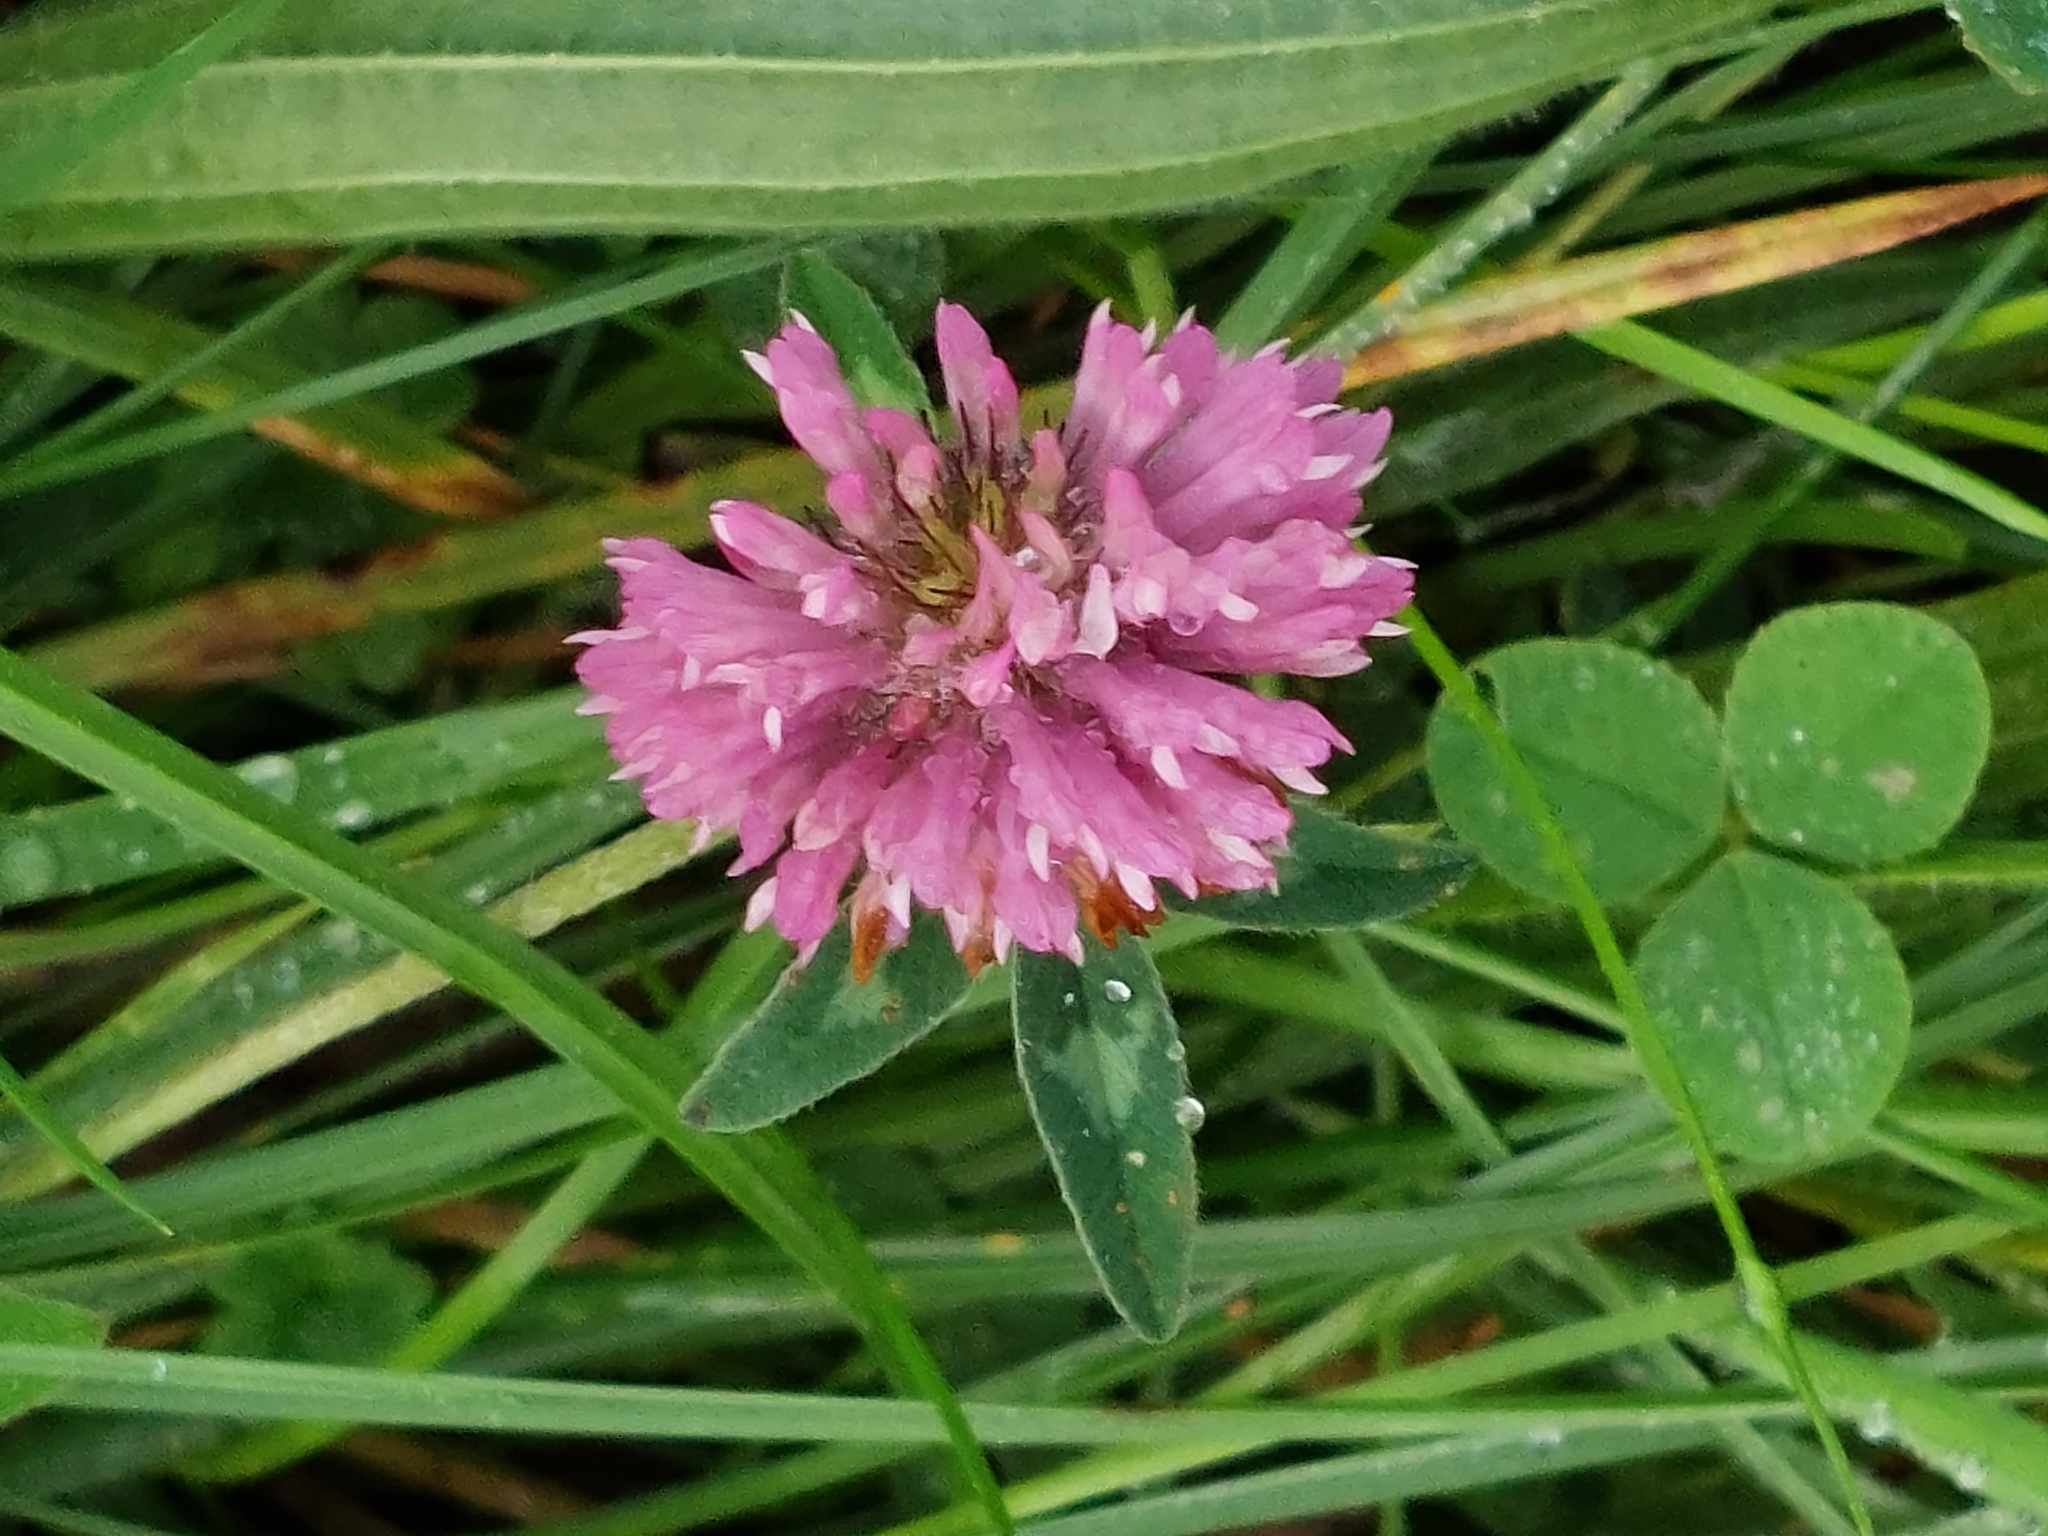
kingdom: Plantae
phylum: Tracheophyta
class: Magnoliopsida
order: Fabales
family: Fabaceae
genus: Trifolium
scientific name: Trifolium pratense
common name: Red clover
